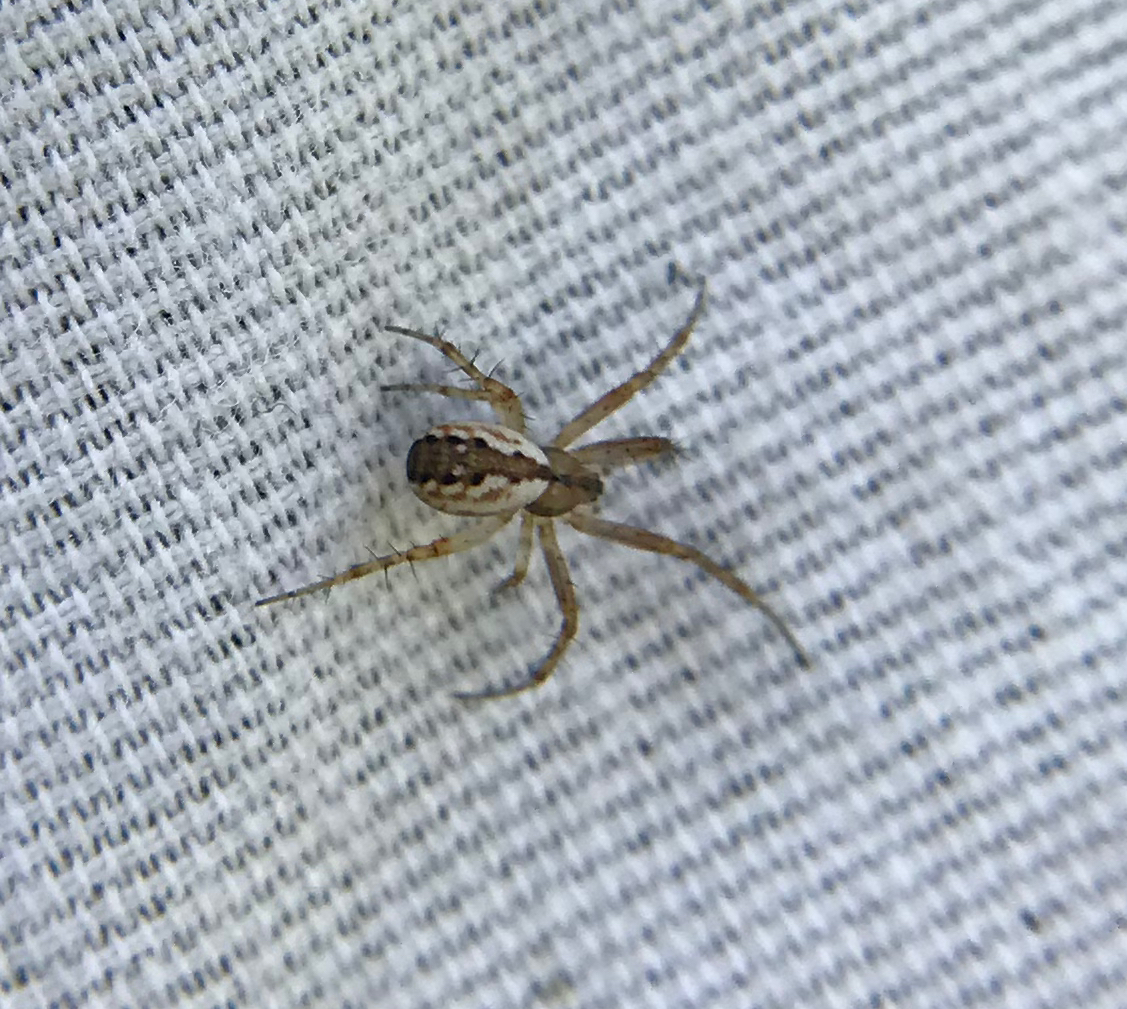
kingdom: Animalia
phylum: Arthropoda
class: Arachnida
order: Araneae
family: Araneidae
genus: Mangora
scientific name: Mangora placida
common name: Tuft-legged orbweaver
